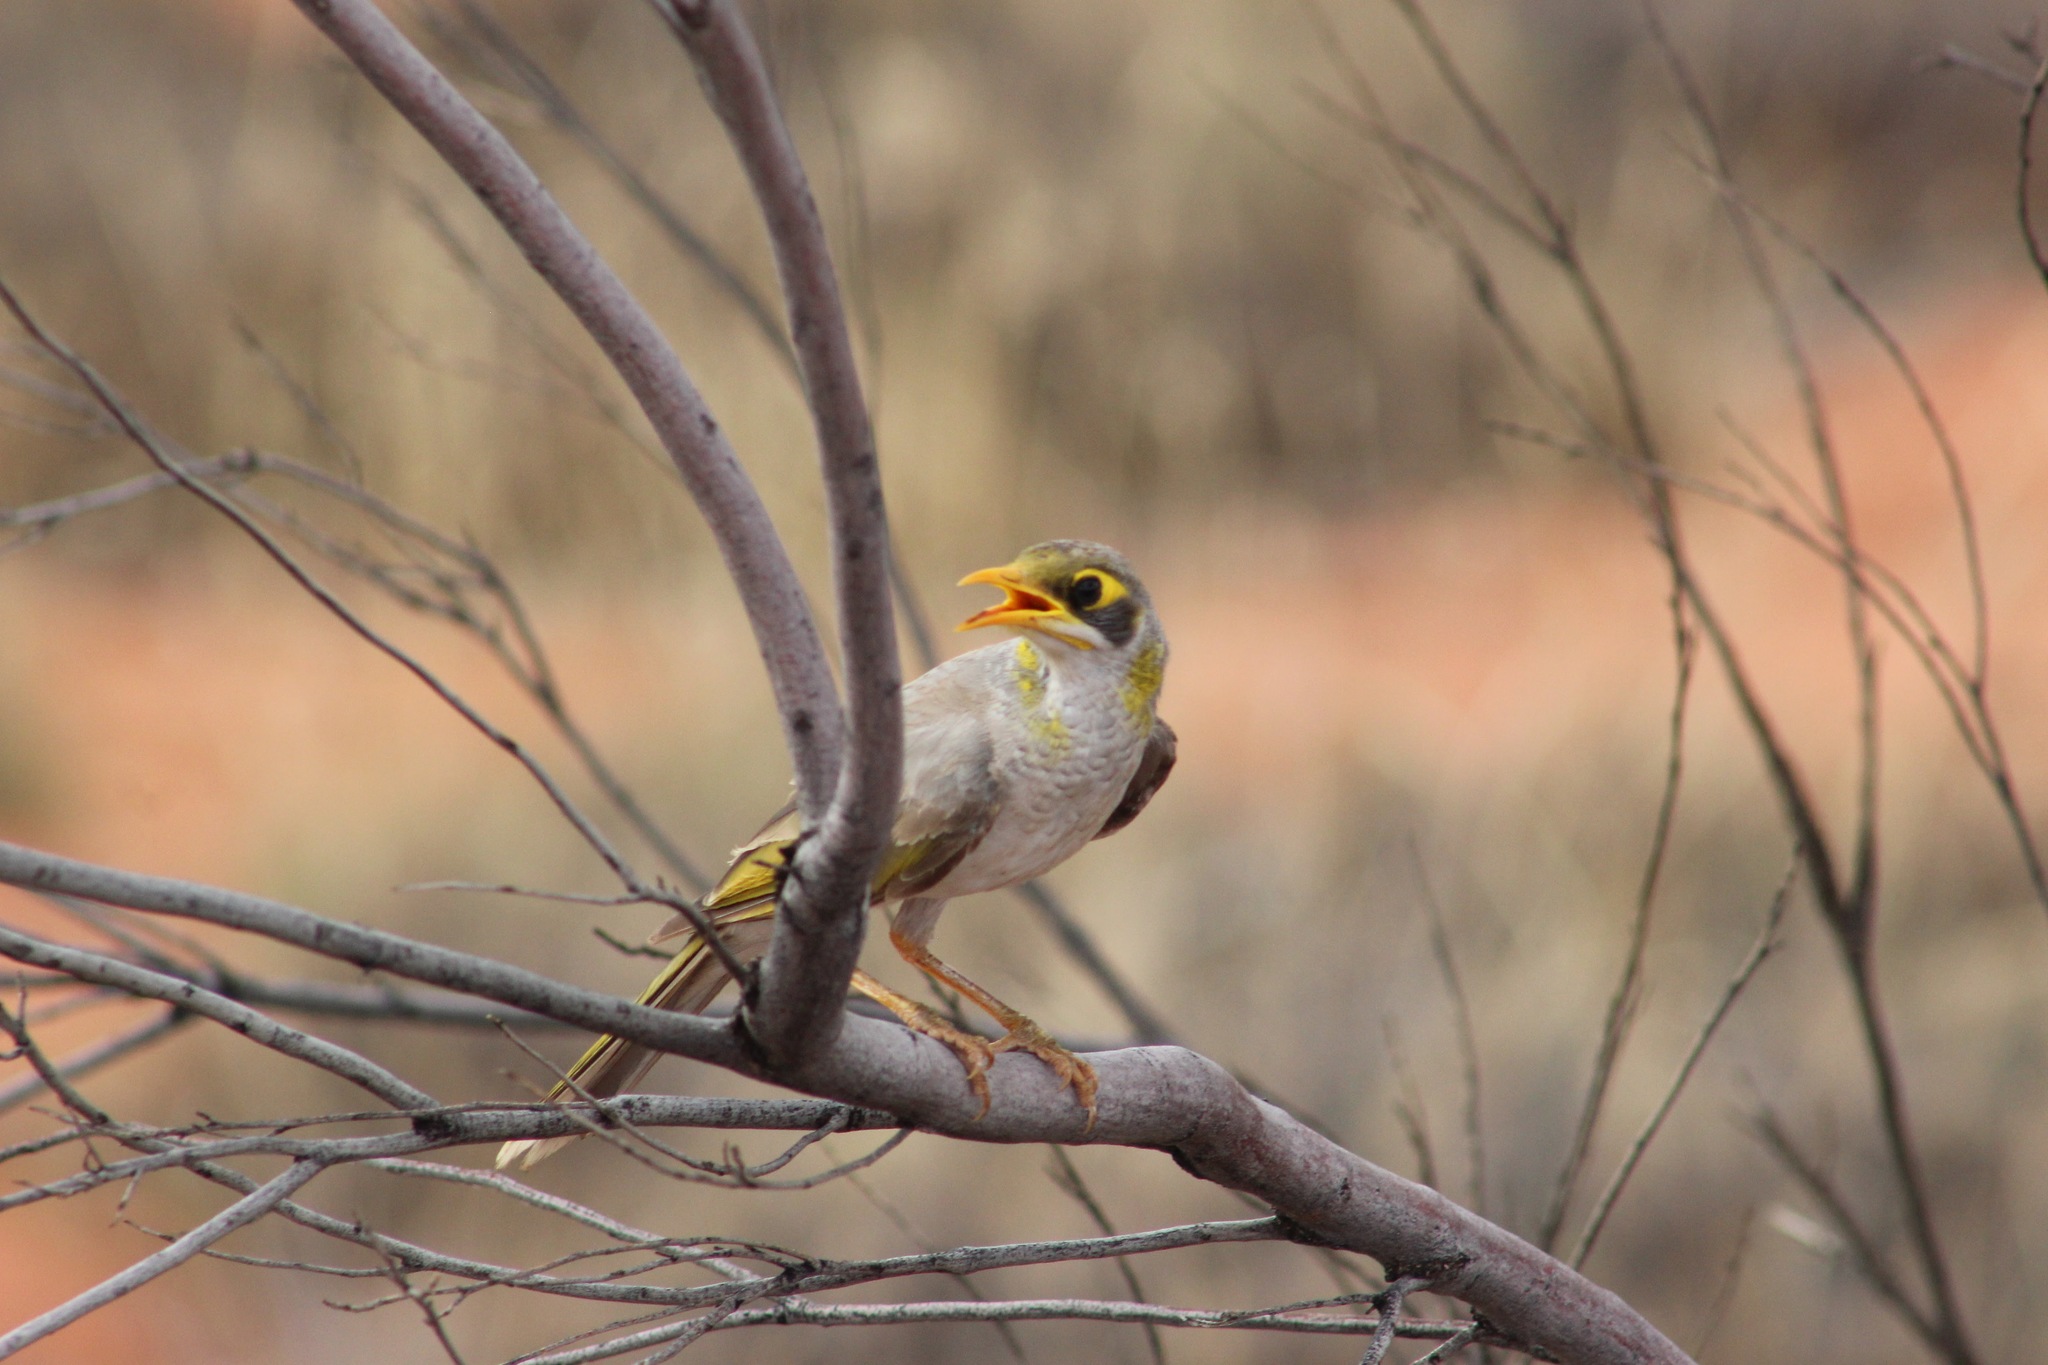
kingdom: Animalia
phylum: Chordata
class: Aves
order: Passeriformes
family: Meliphagidae
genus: Manorina
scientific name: Manorina flavigula
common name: Yellow-throated miner
